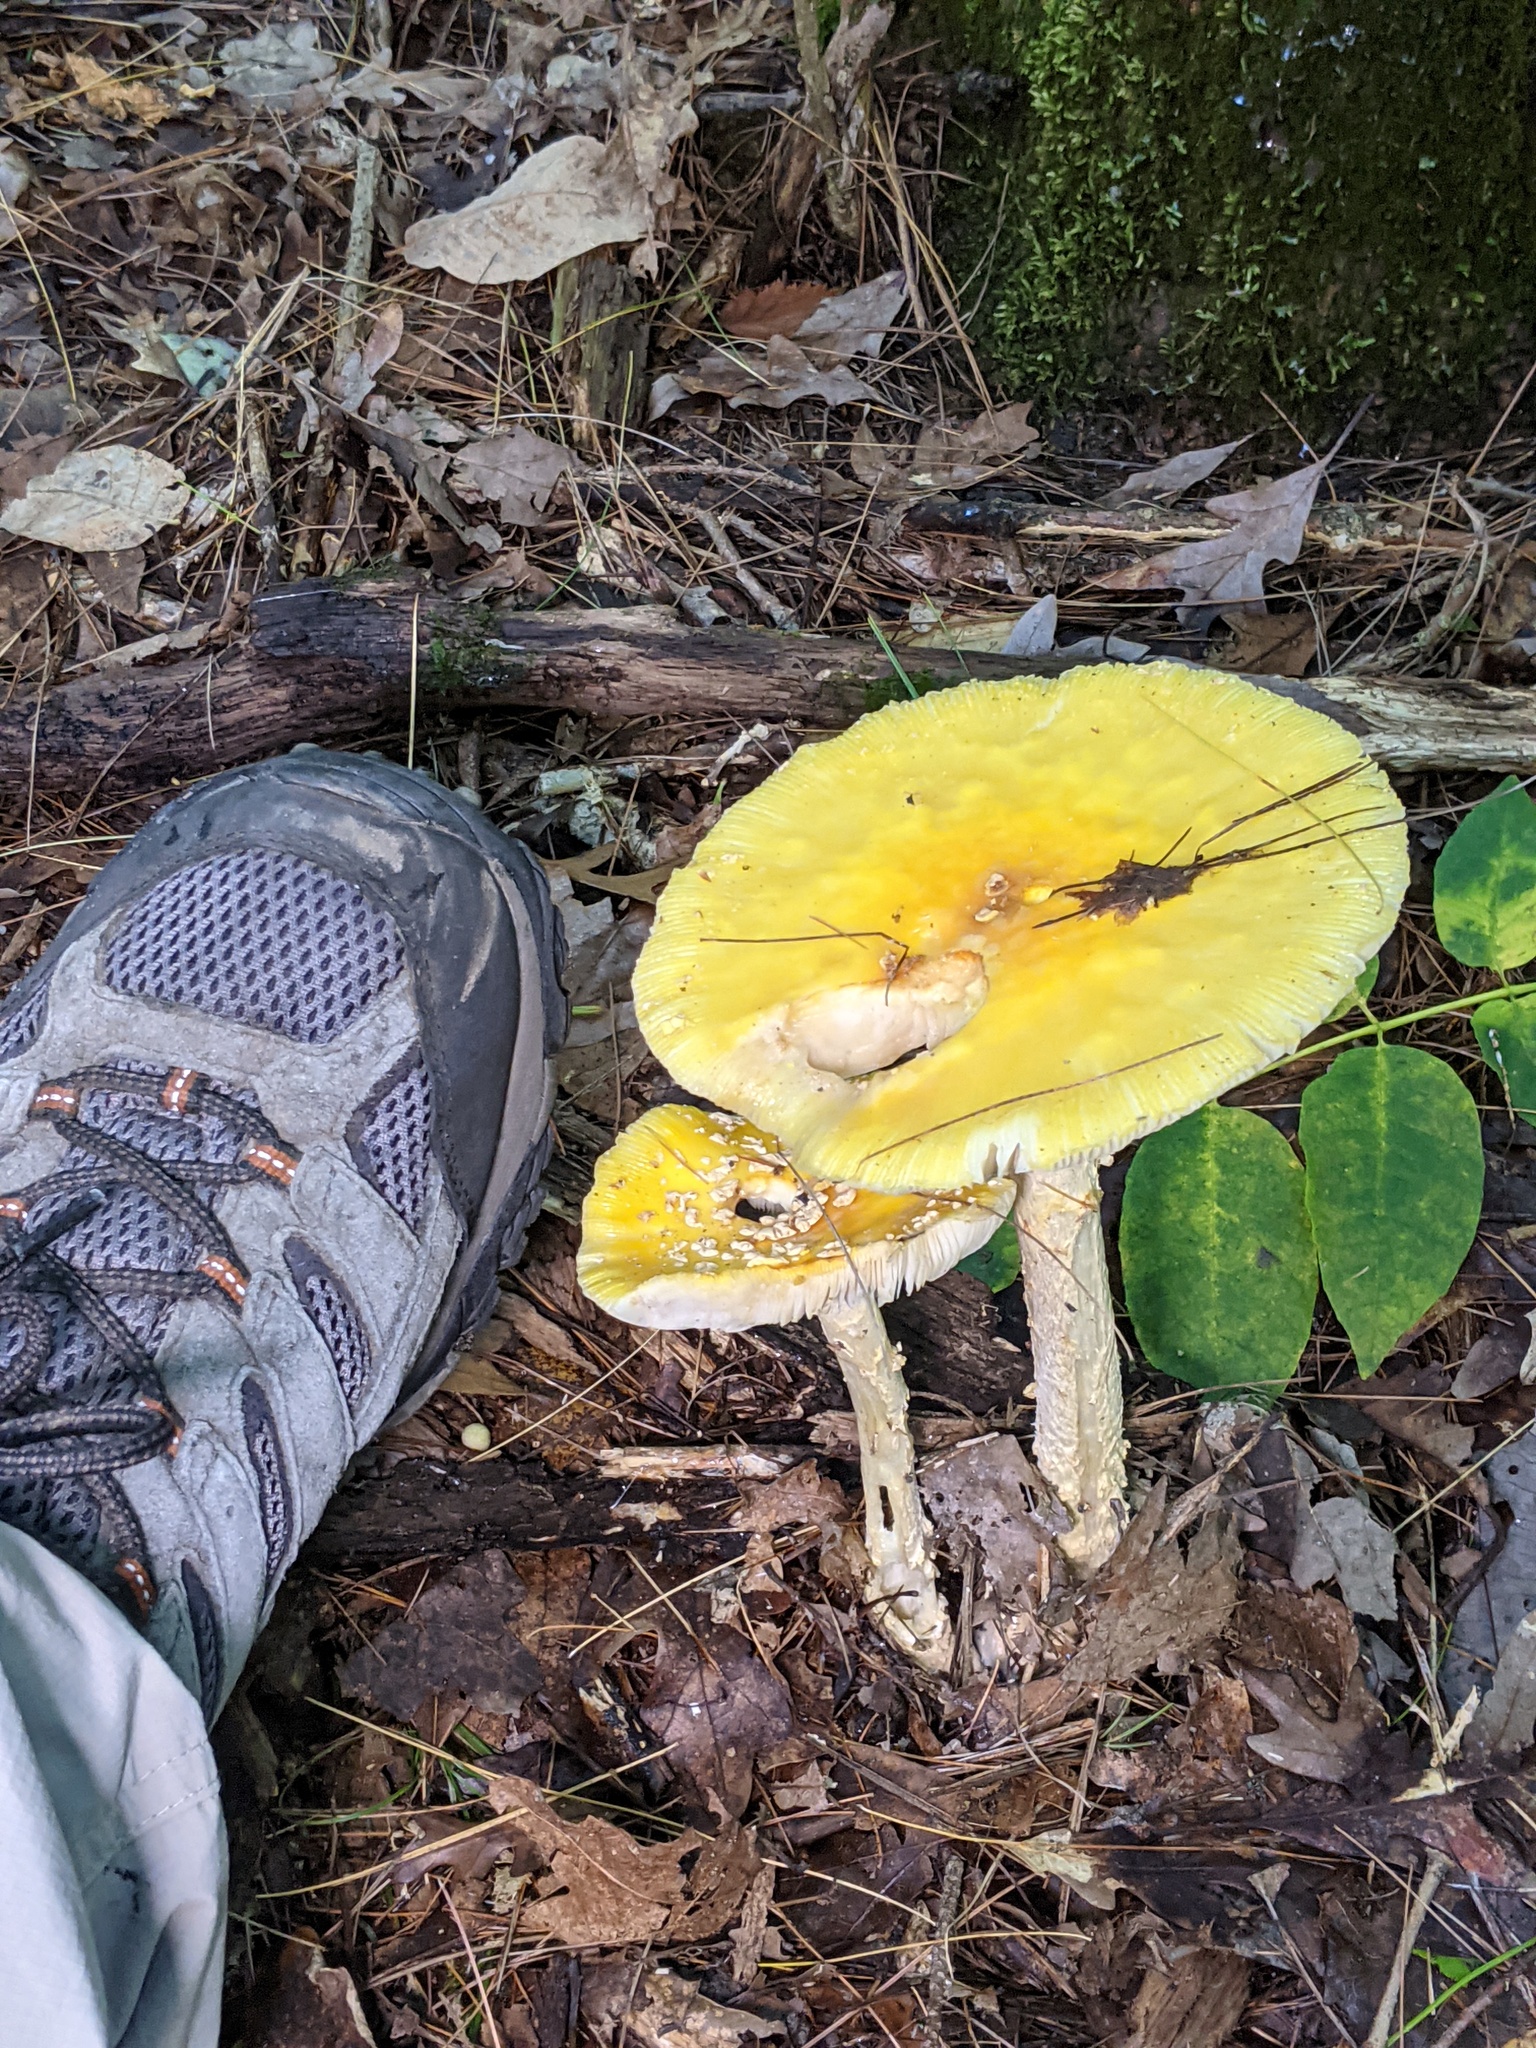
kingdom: Fungi
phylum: Basidiomycota
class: Agaricomycetes
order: Agaricales
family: Amanitaceae
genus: Amanita
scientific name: Amanita muscaria
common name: Fly agaric
